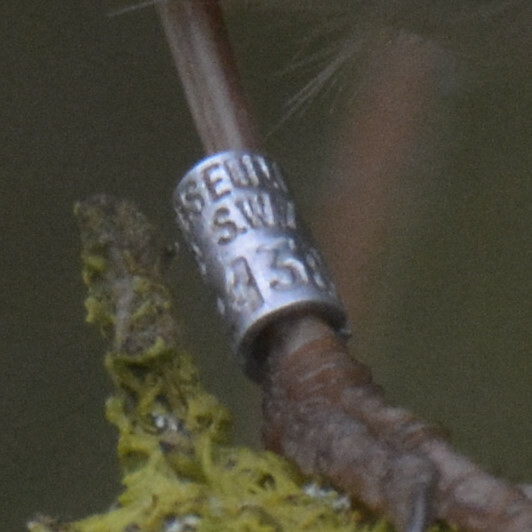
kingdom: Animalia
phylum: Chordata
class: Aves
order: Passeriformes
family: Muscicapidae
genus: Erithacus
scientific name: Erithacus rubecula
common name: European robin
